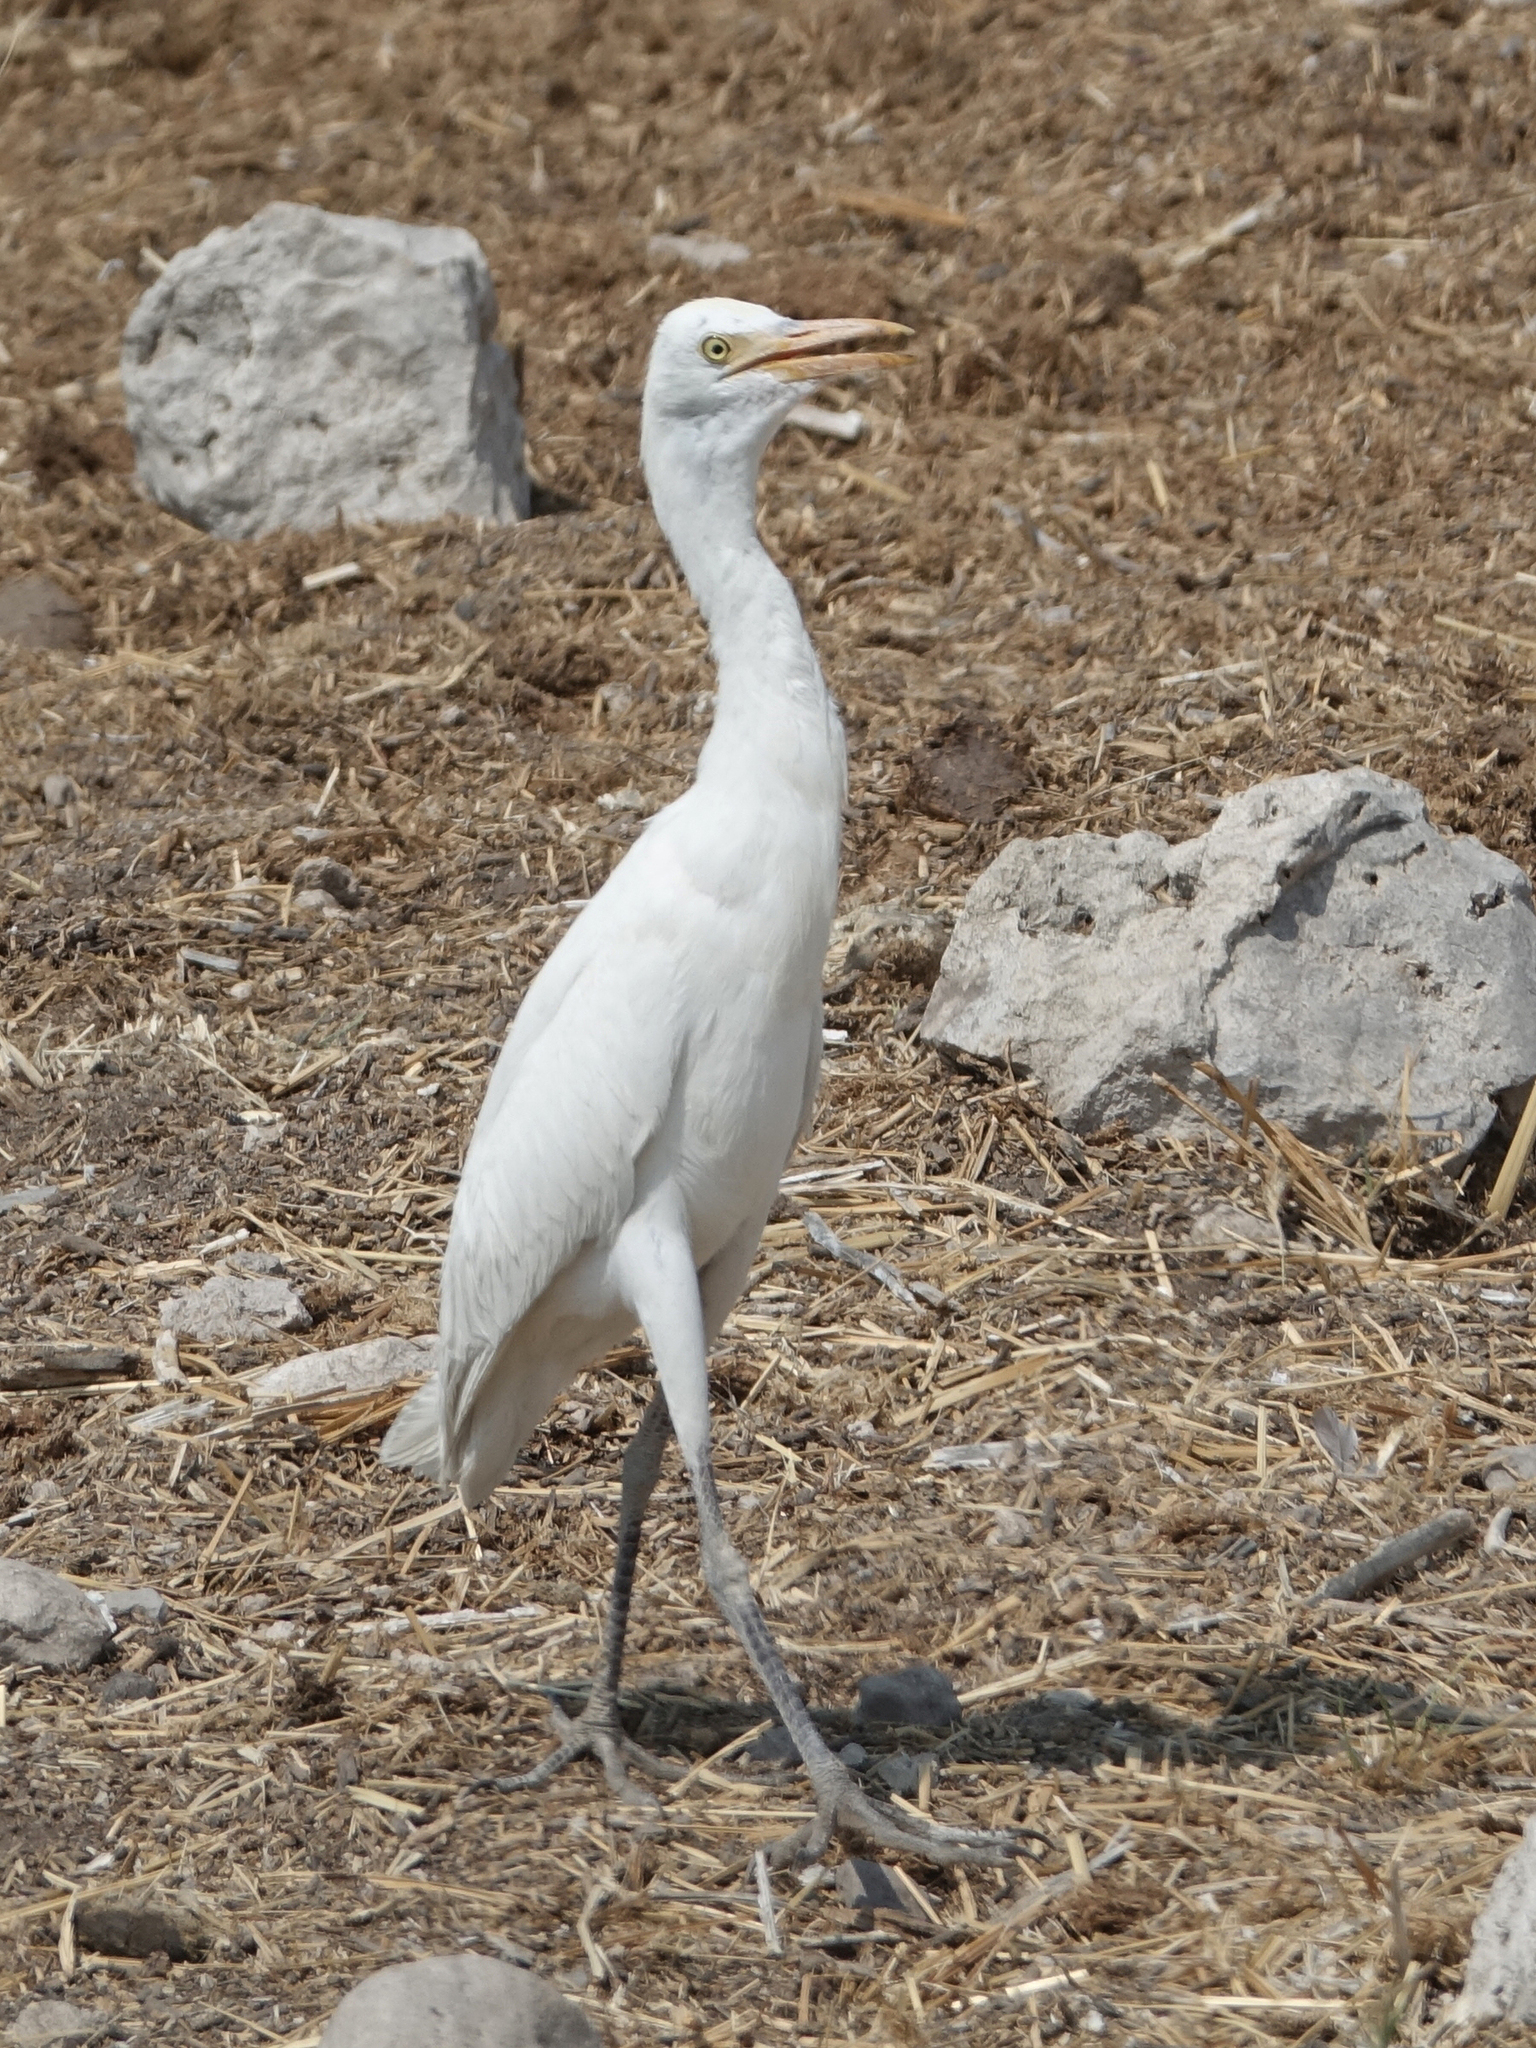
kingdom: Animalia
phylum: Chordata
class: Aves
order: Pelecaniformes
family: Ardeidae
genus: Bubulcus
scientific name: Bubulcus ibis
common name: Cattle egret
